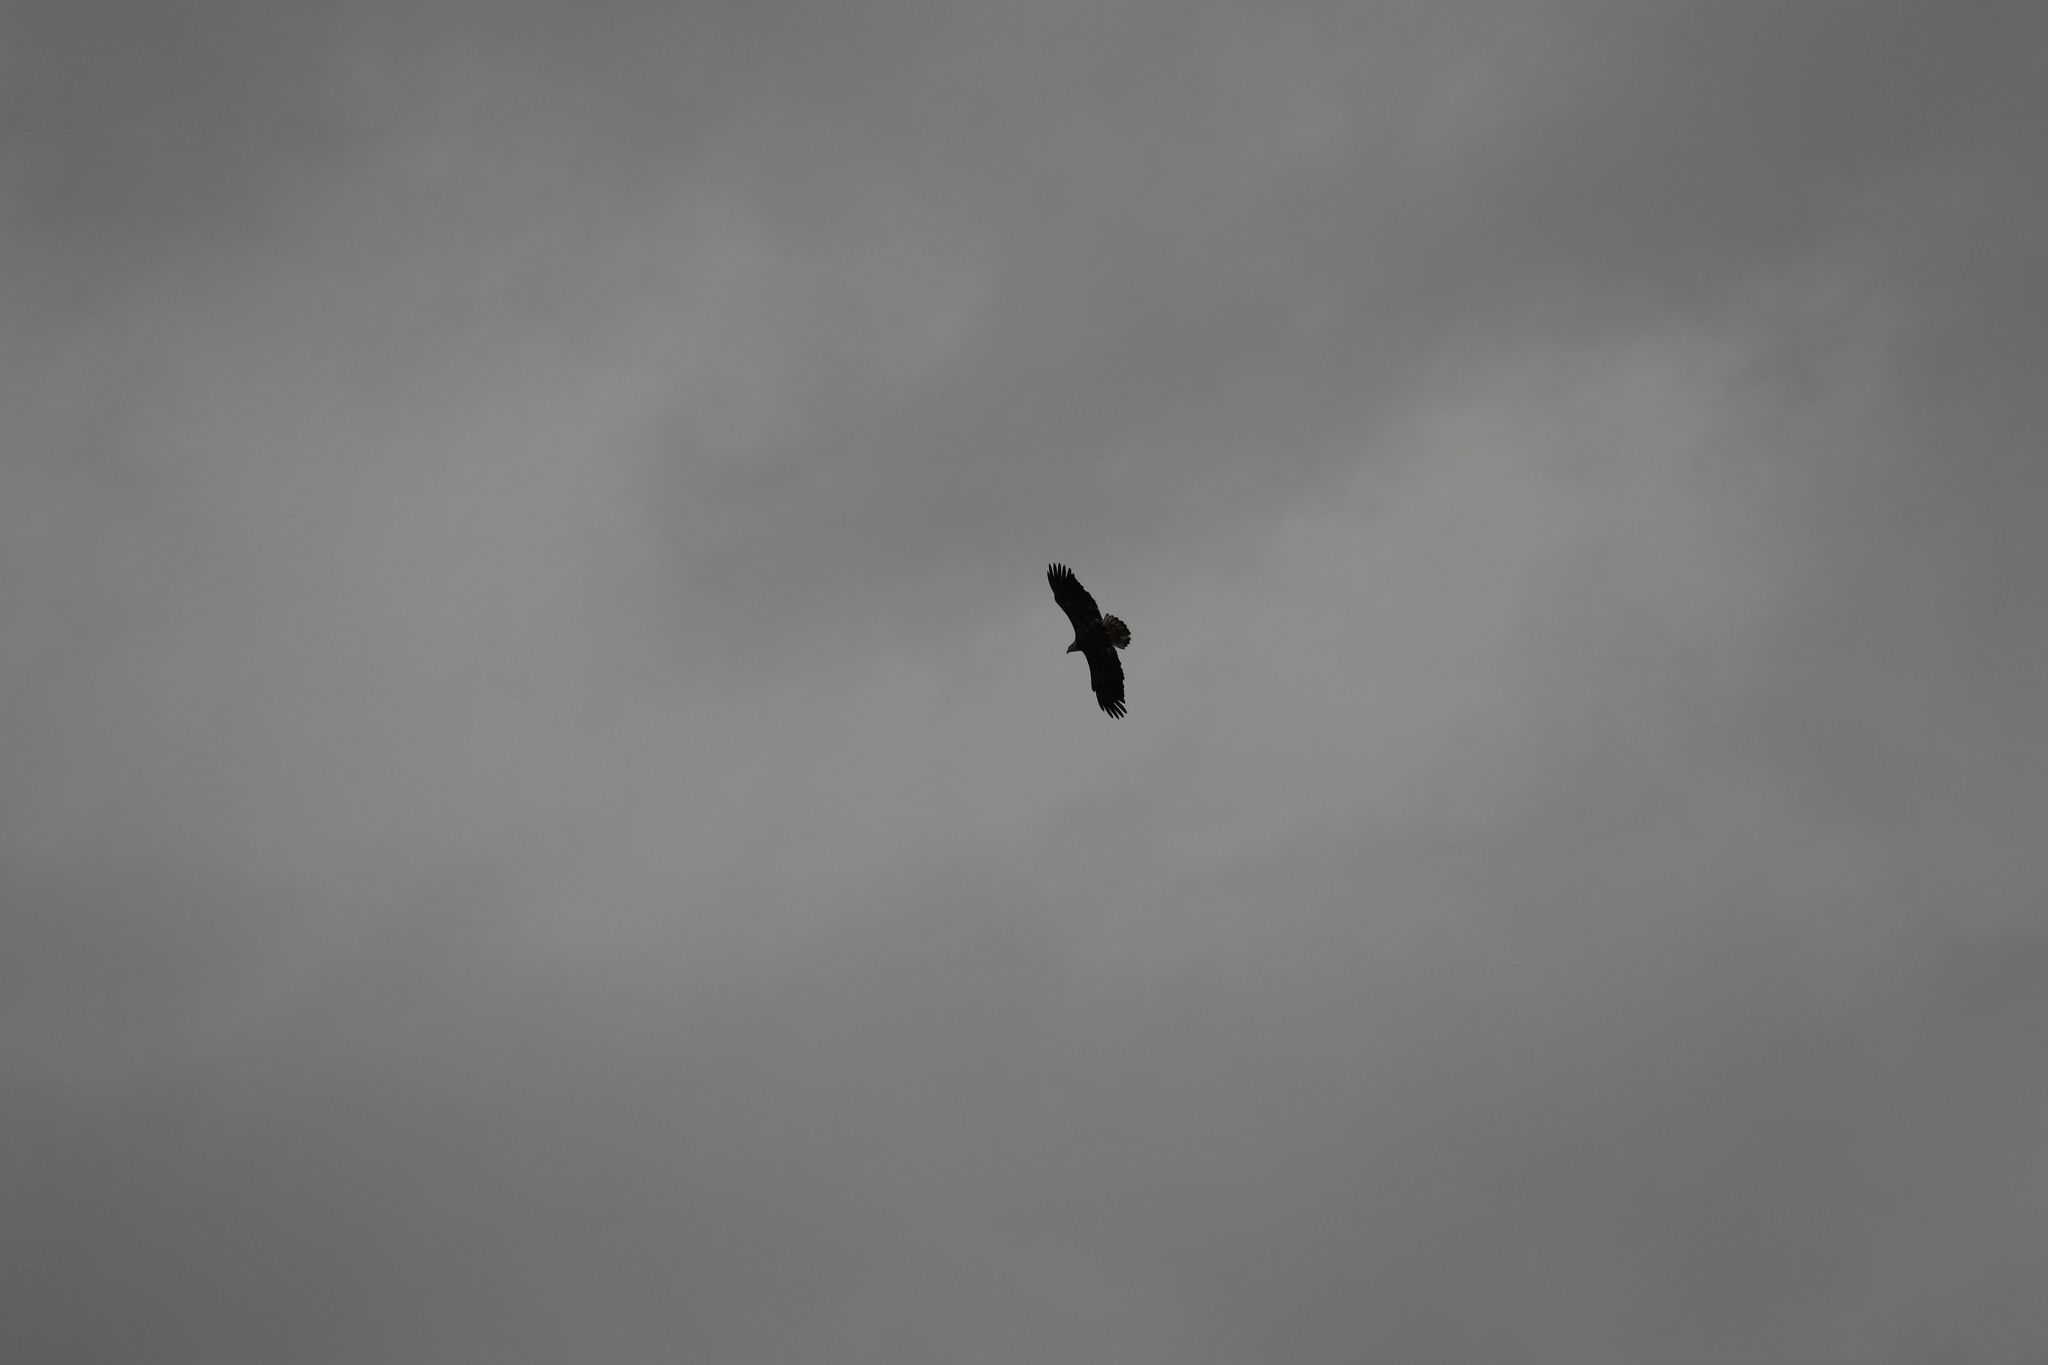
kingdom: Animalia
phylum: Chordata
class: Aves
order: Accipitriformes
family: Accipitridae
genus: Haliaeetus
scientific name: Haliaeetus leucocephalus
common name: Bald eagle
